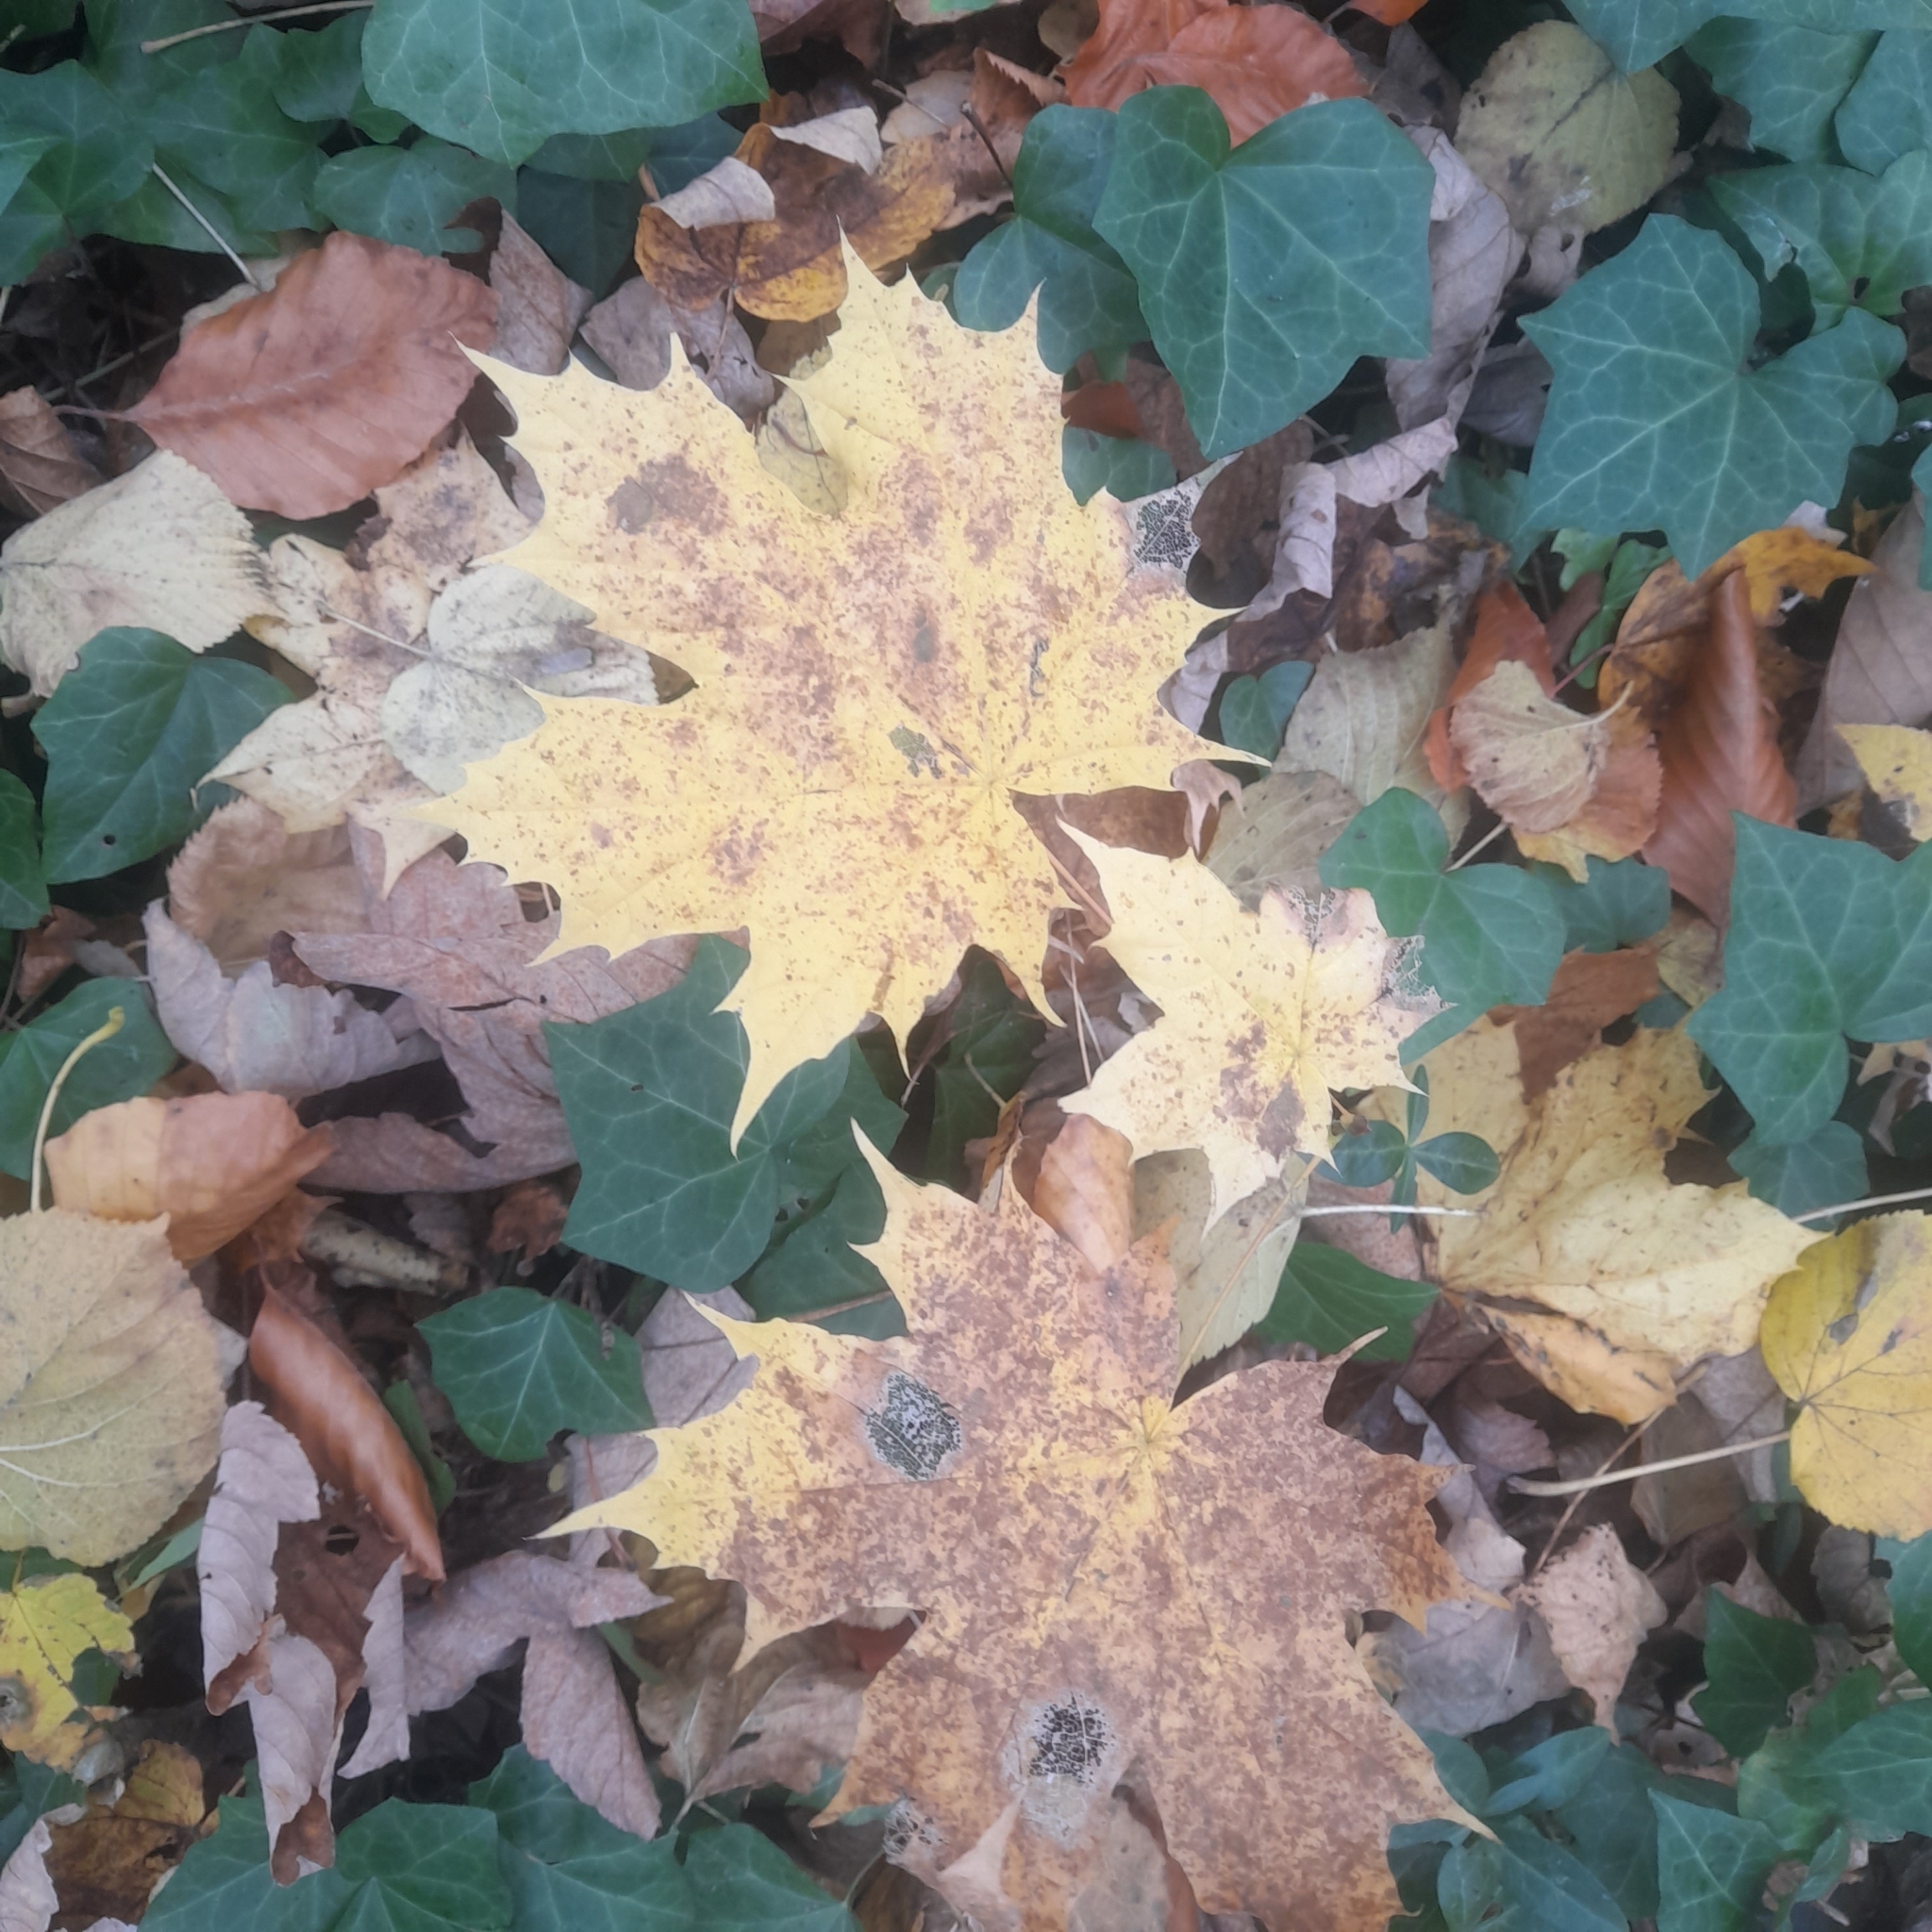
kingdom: Plantae
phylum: Tracheophyta
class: Magnoliopsida
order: Sapindales
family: Sapindaceae
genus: Acer
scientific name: Acer platanoides
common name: Norway maple
